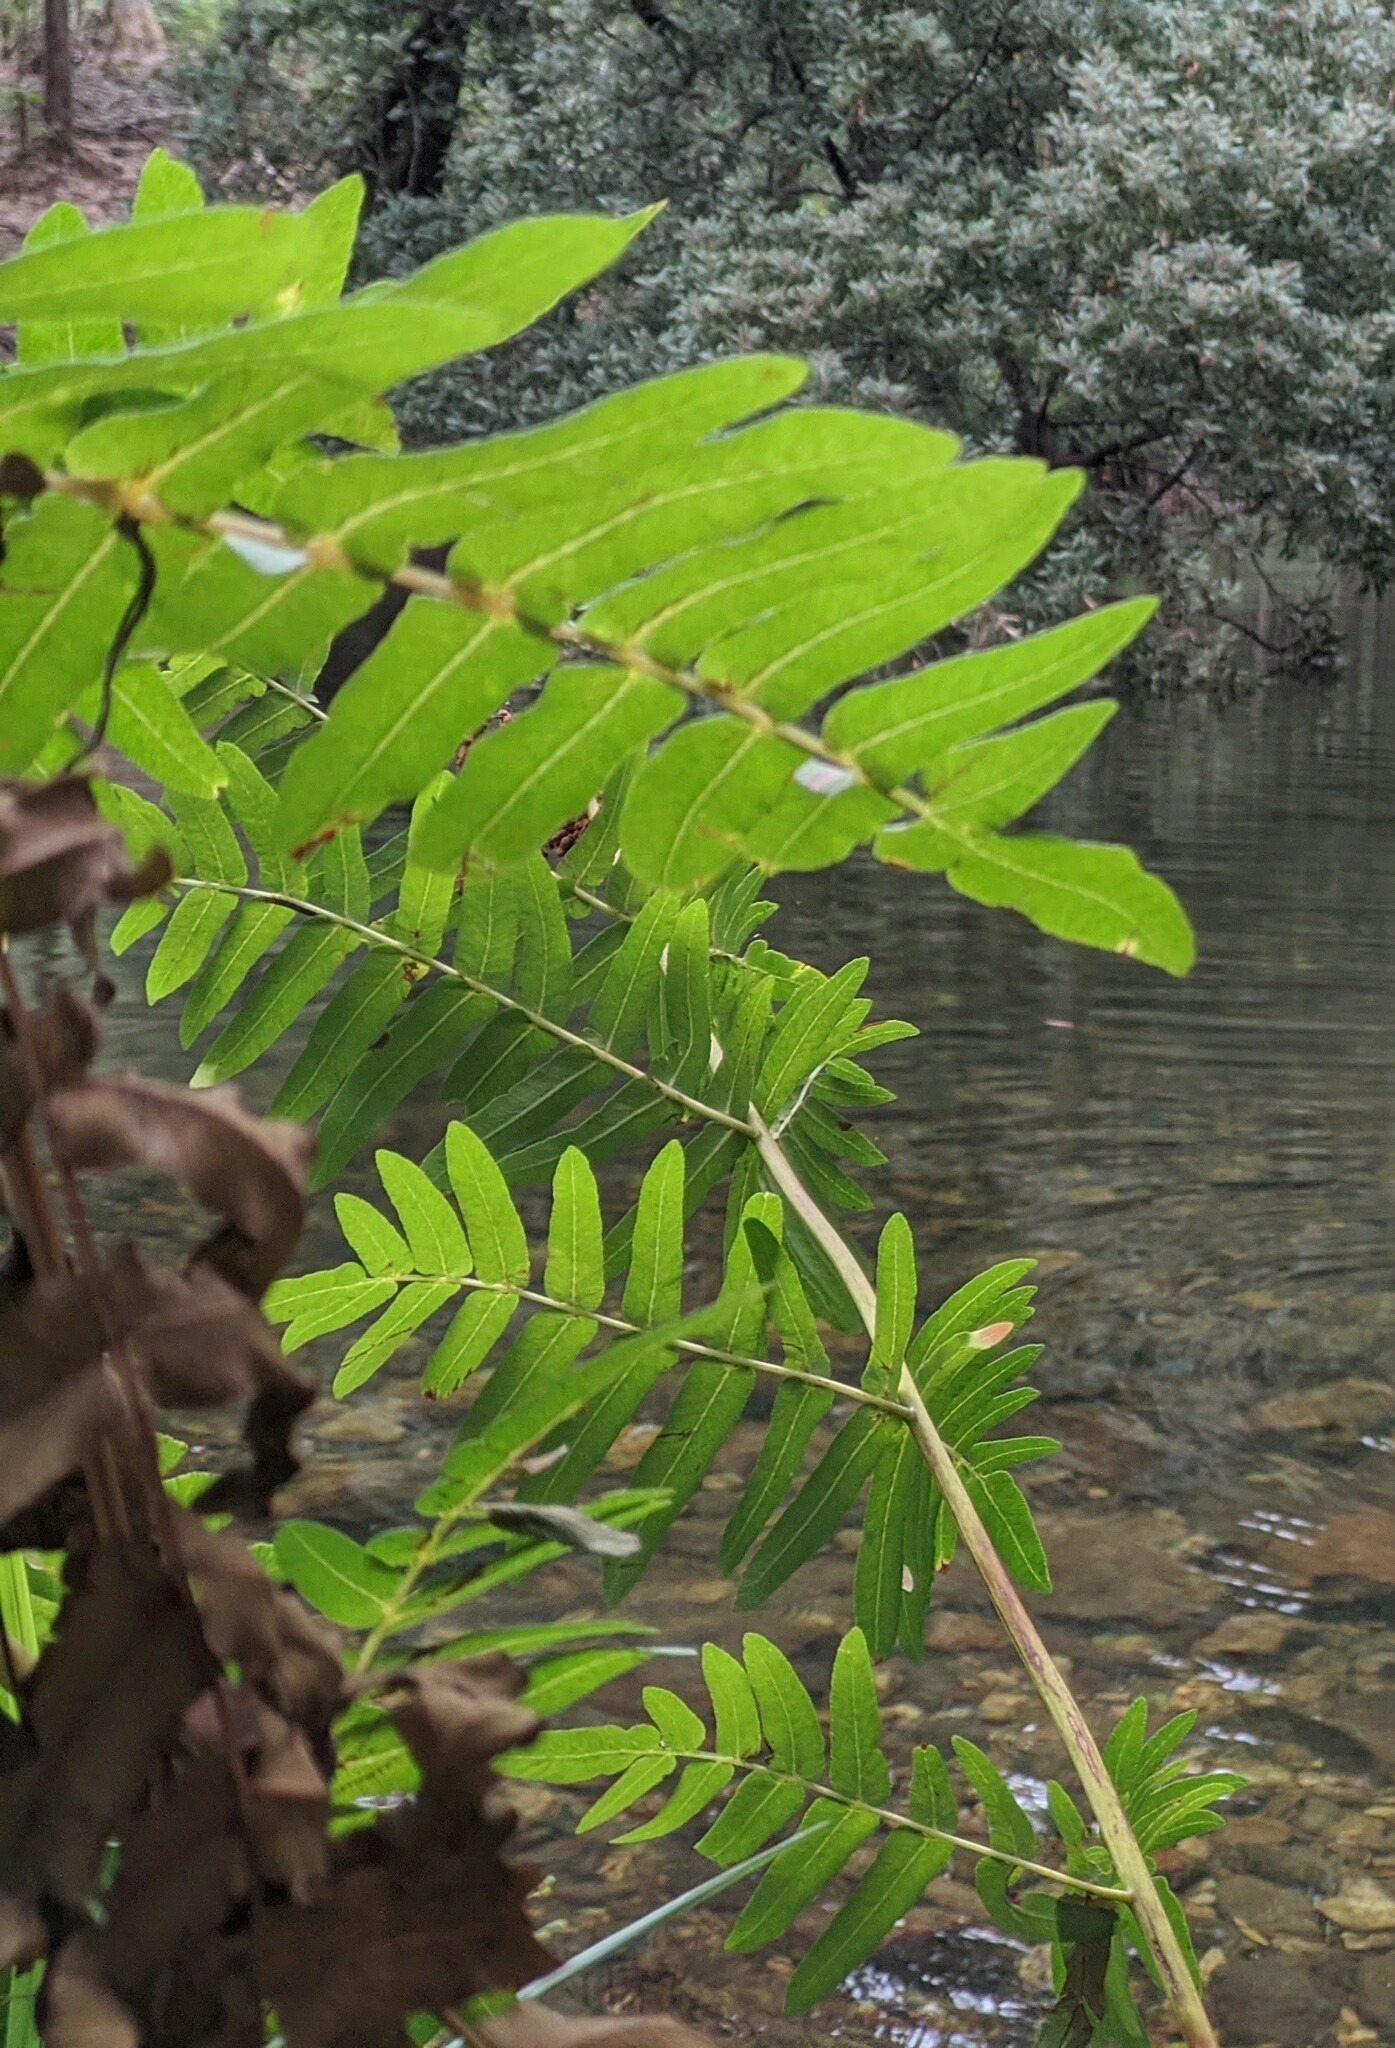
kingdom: Plantae
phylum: Tracheophyta
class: Polypodiopsida
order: Osmundales
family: Osmundaceae
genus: Osmunda
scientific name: Osmunda regalis
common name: Royal fern
